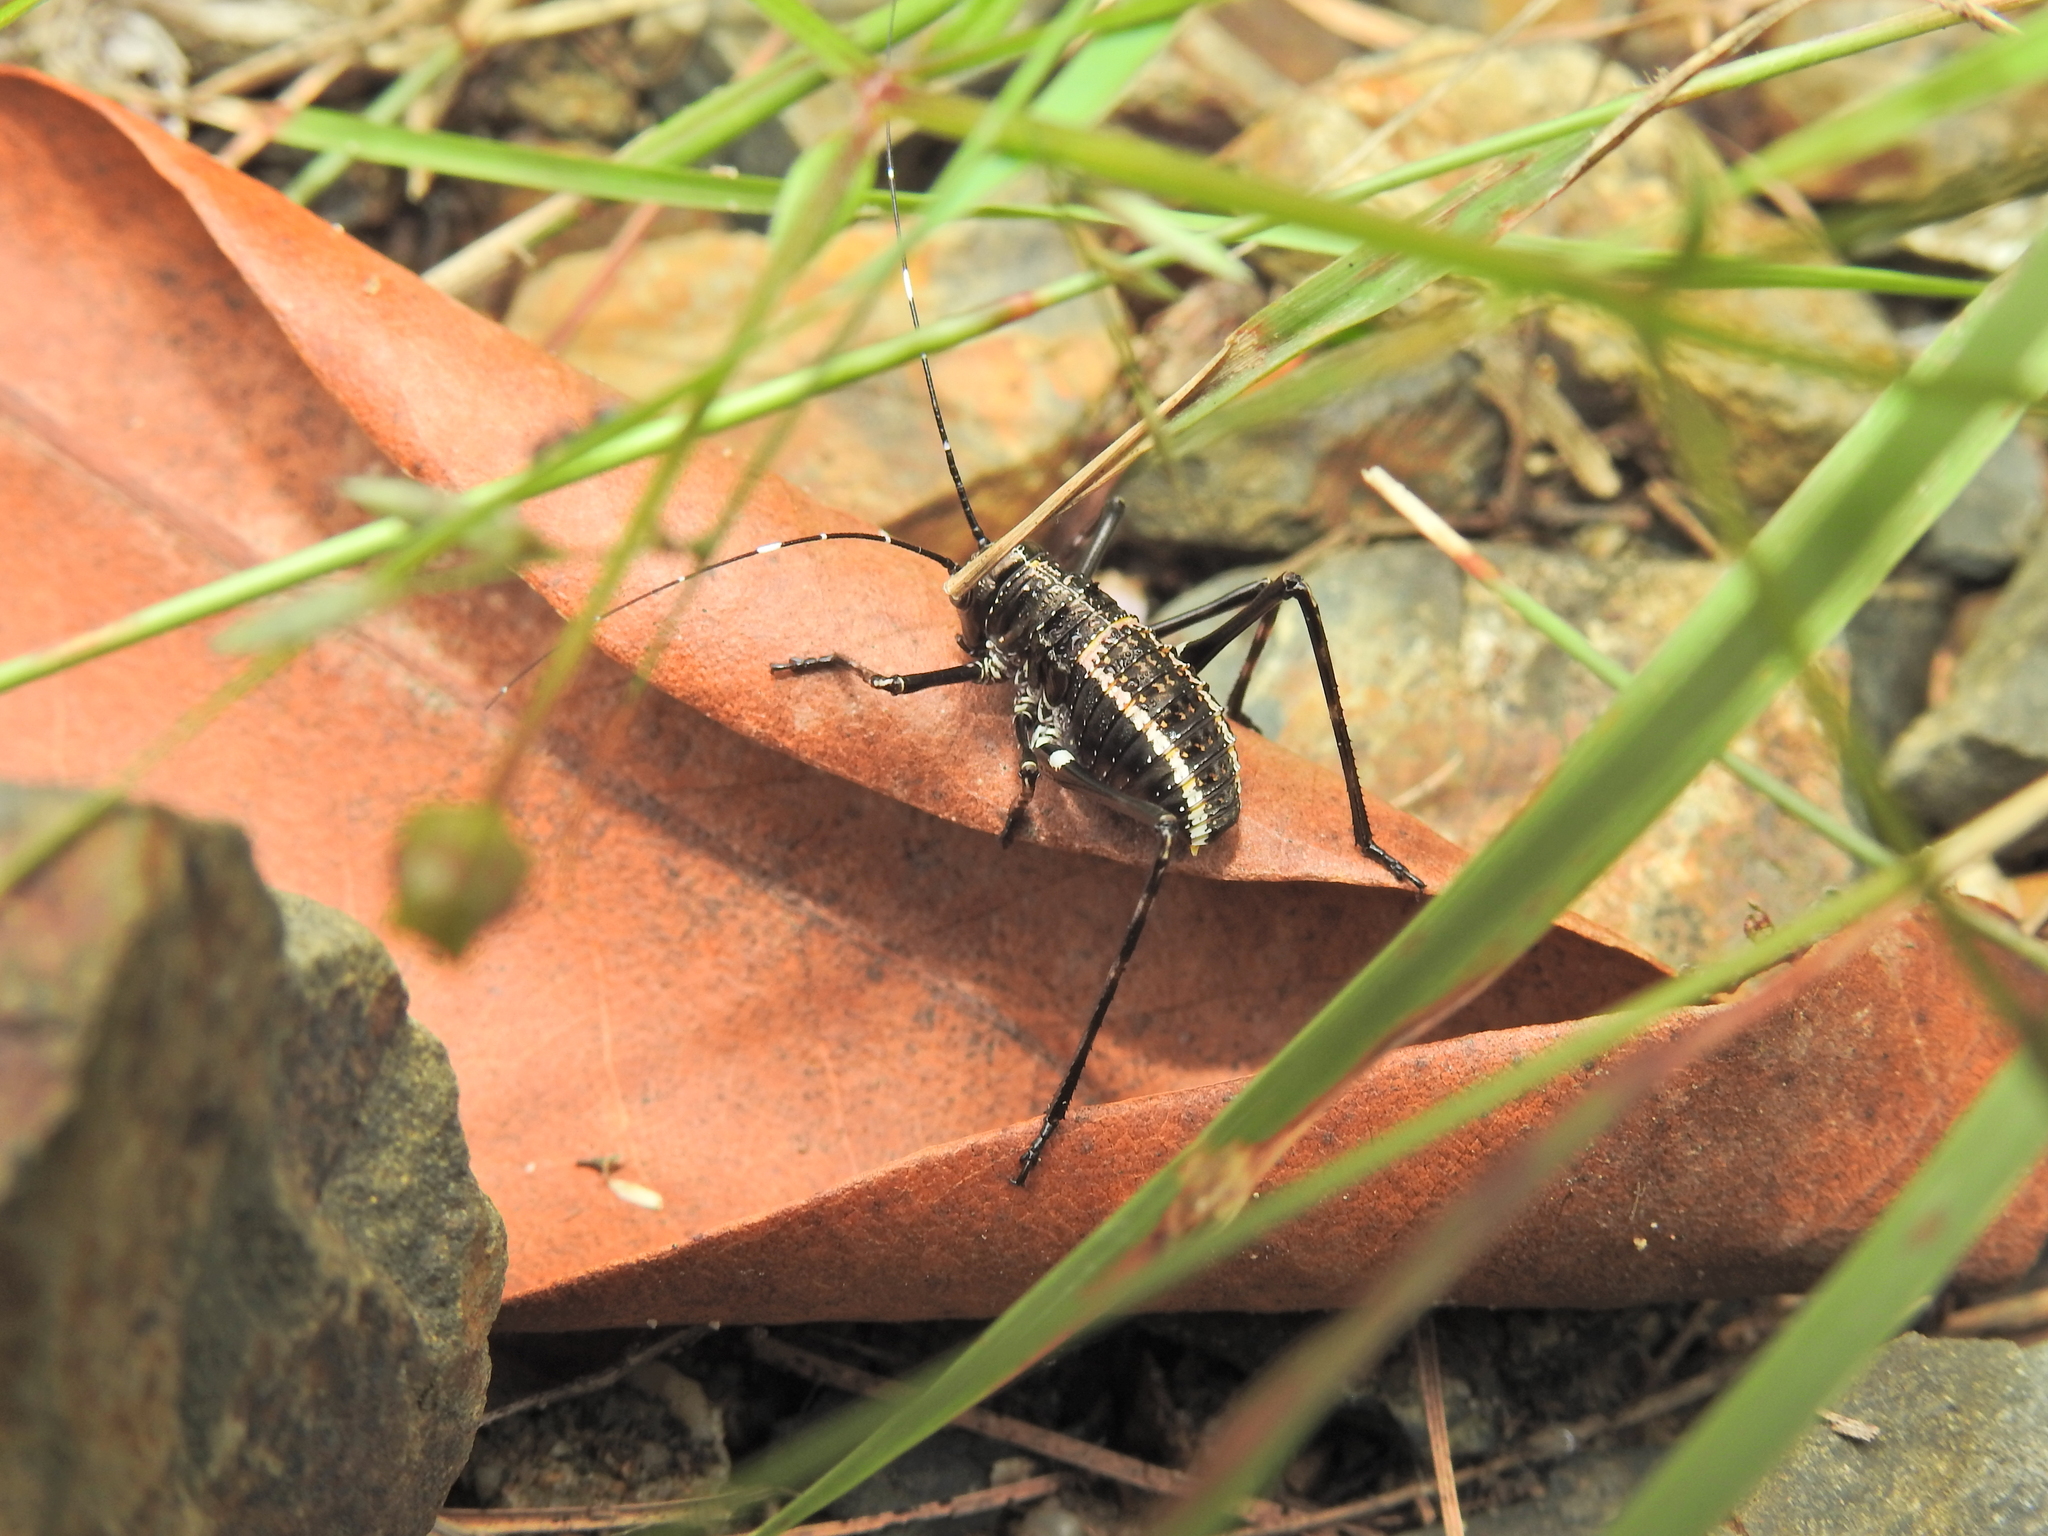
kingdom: Animalia
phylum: Arthropoda
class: Insecta
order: Orthoptera
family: Tettigoniidae
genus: Acripeza
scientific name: Acripeza reticulata
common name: Mountain katydid
